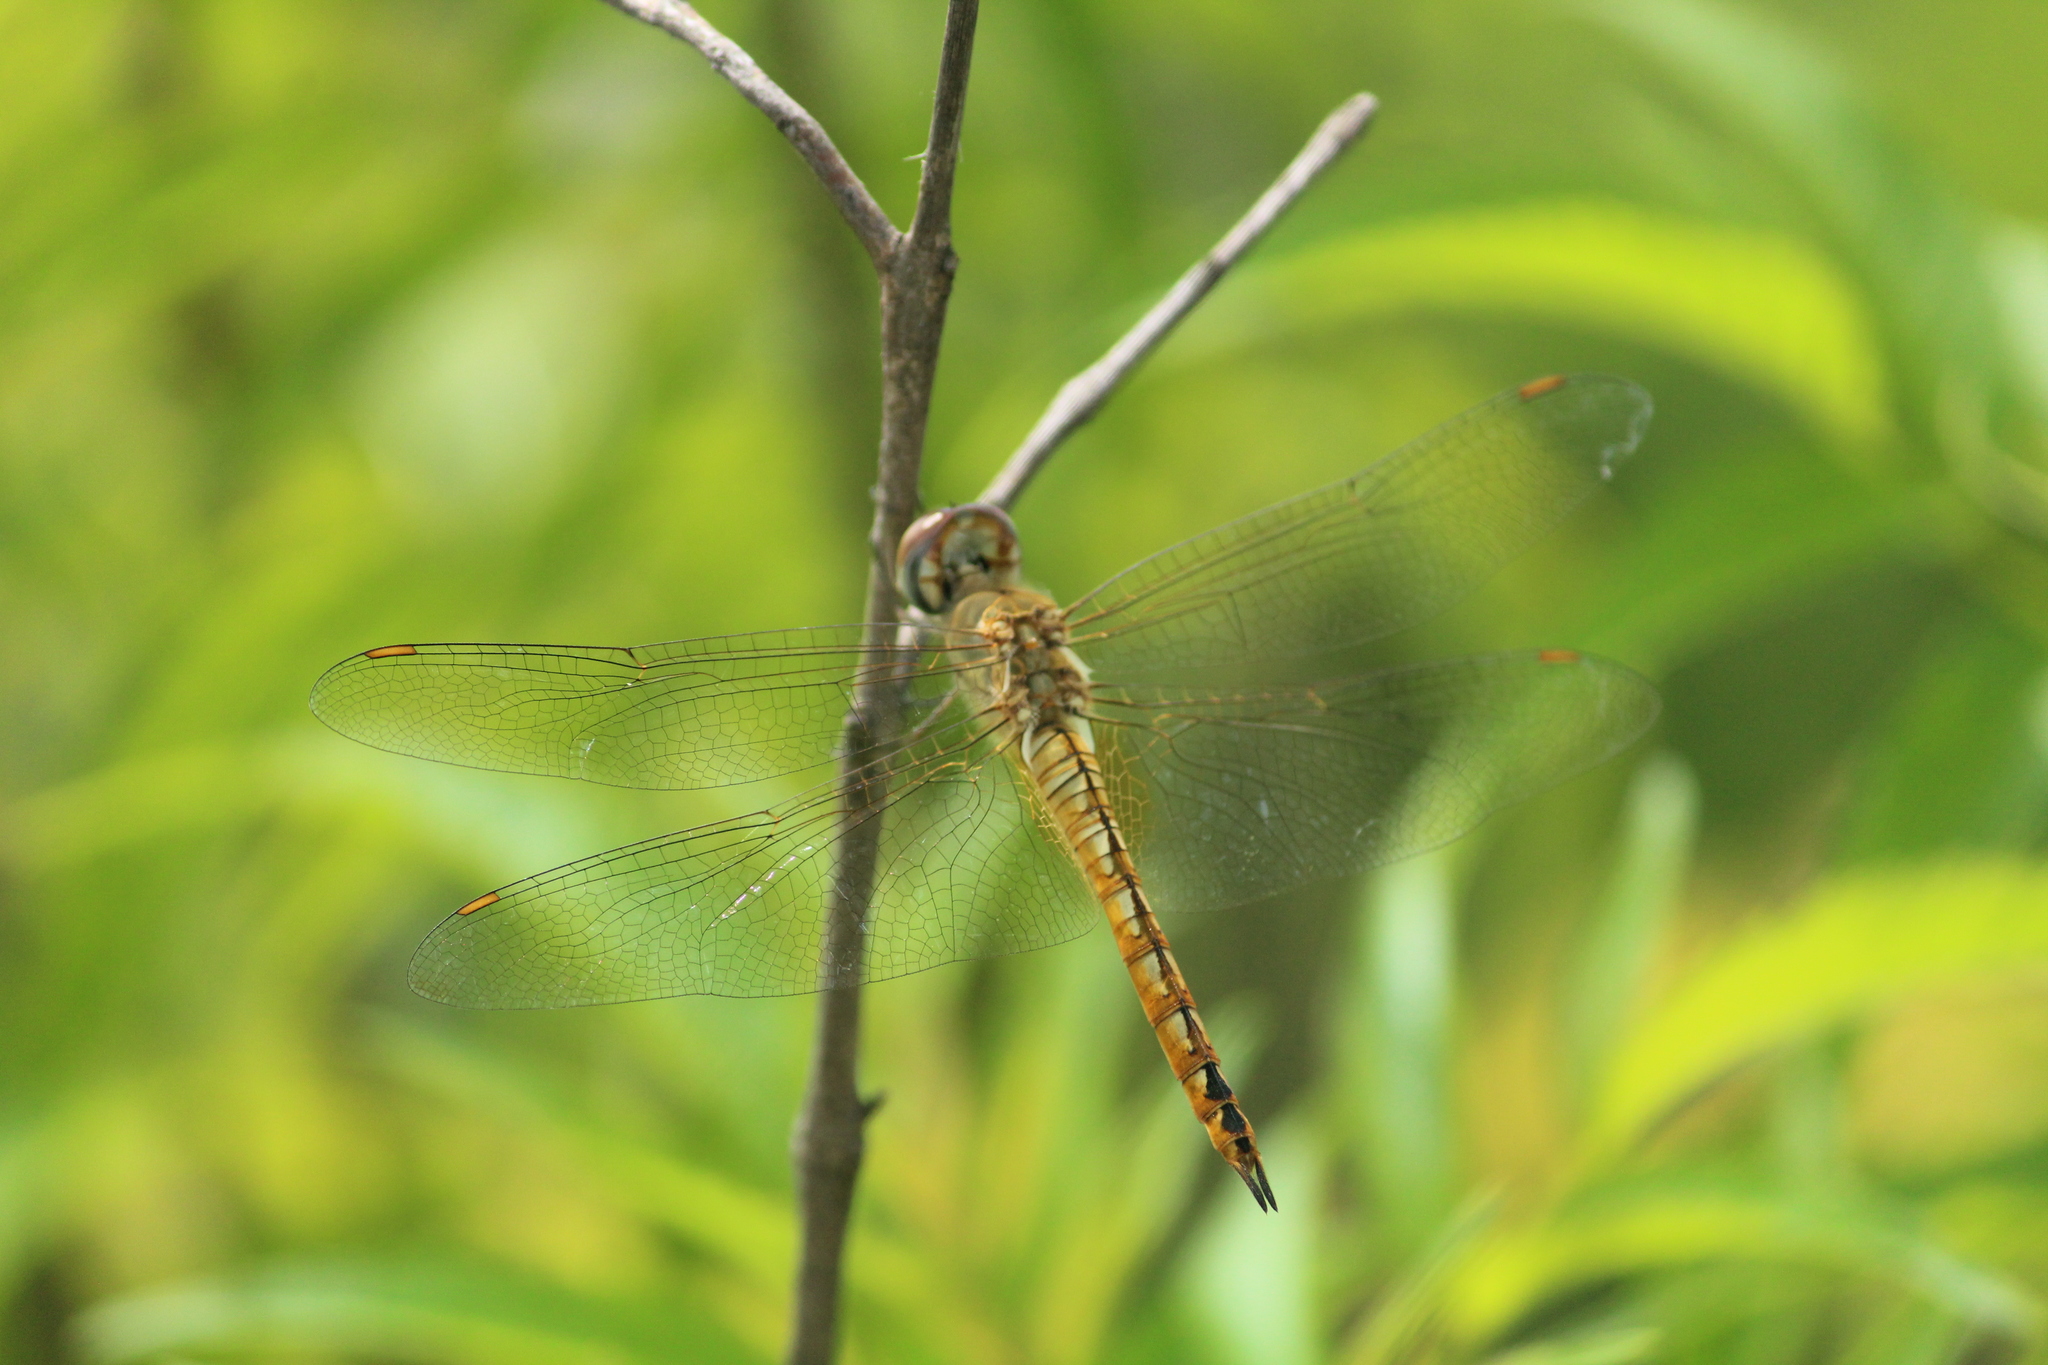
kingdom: Animalia
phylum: Arthropoda
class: Insecta
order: Odonata
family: Libellulidae
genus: Pantala
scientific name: Pantala flavescens
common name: Wandering glider
